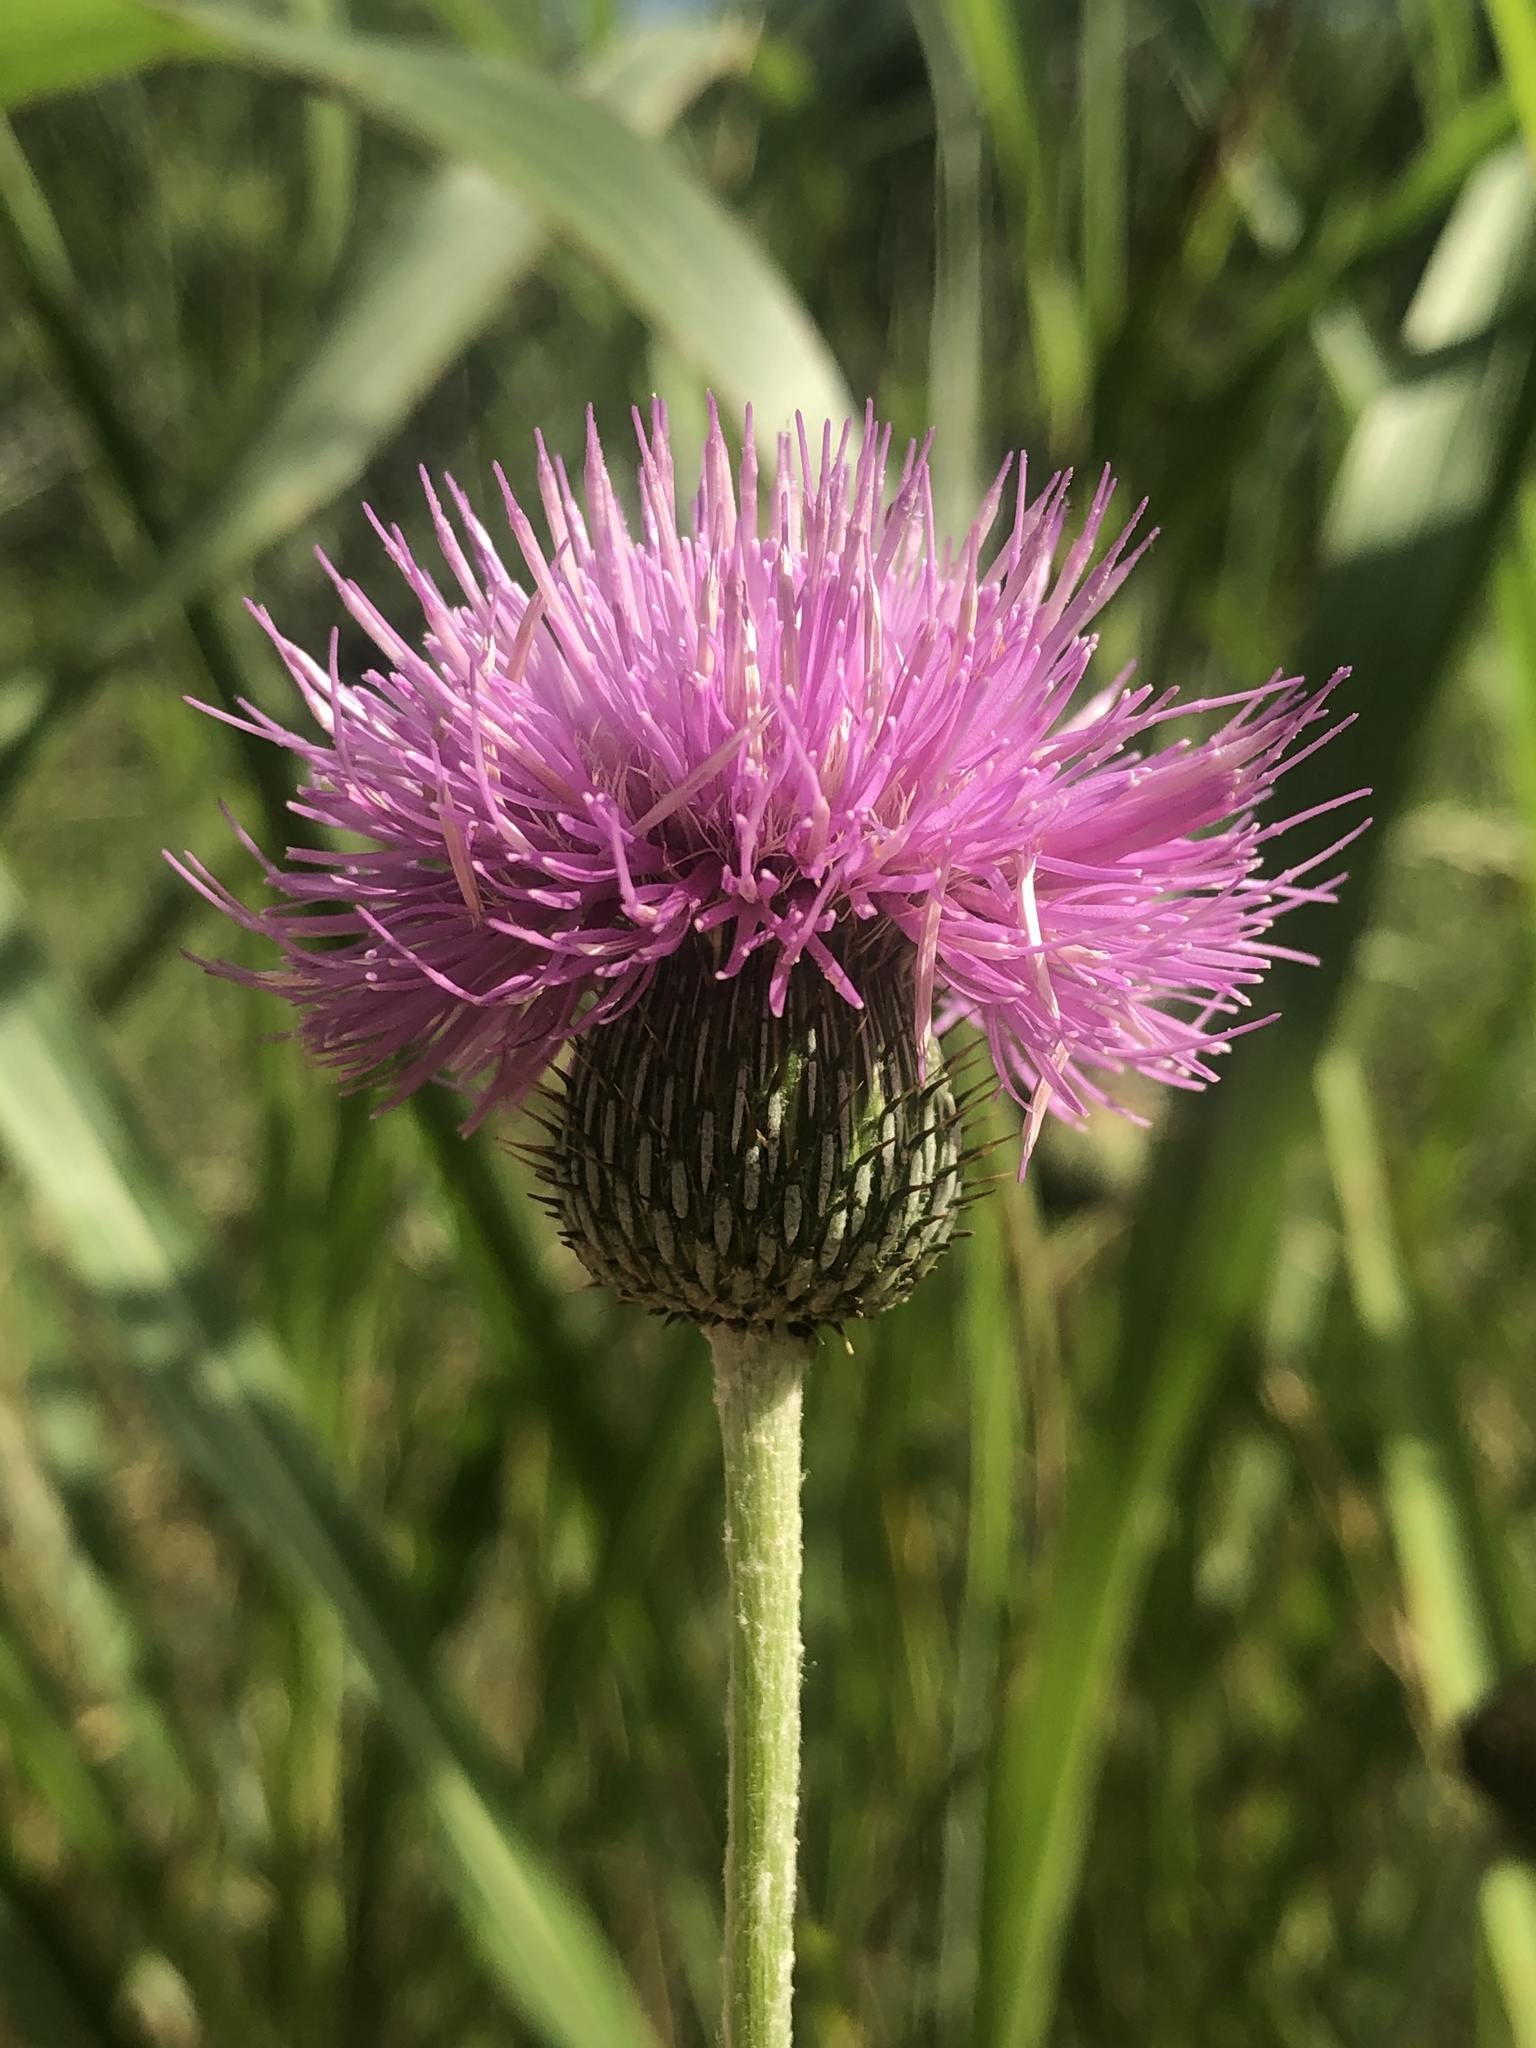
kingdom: Plantae
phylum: Tracheophyta
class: Magnoliopsida
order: Asterales
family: Asteraceae
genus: Cirsium
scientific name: Cirsium texanum
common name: Texas purple thistle
